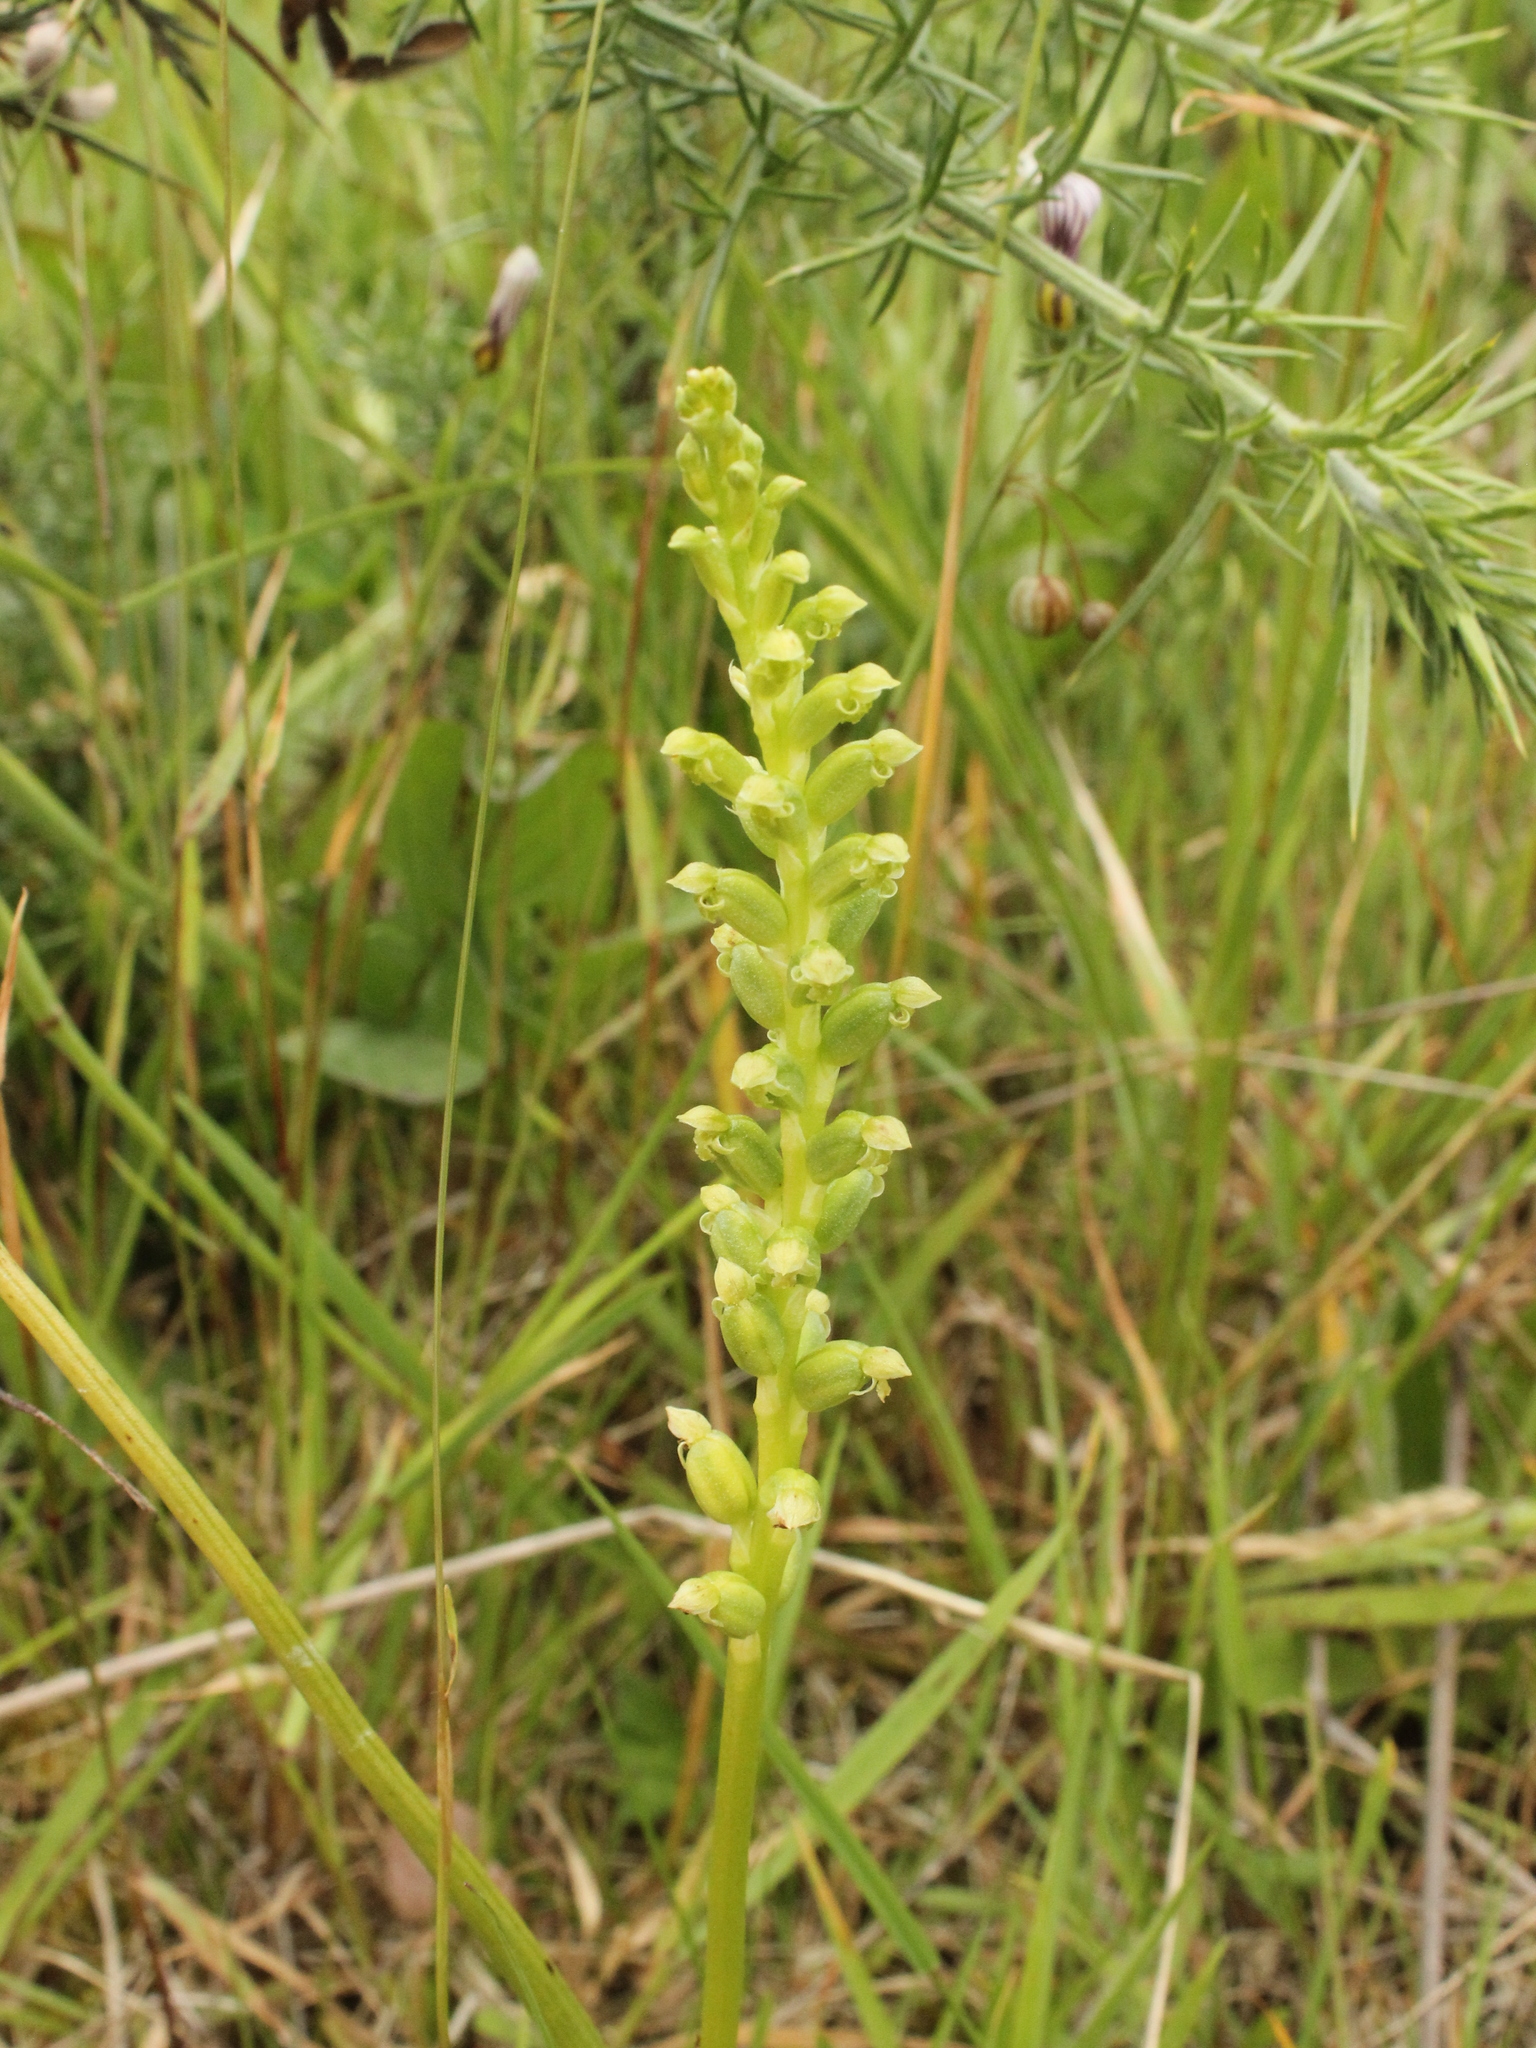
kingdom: Plantae
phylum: Tracheophyta
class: Liliopsida
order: Asparagales
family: Orchidaceae
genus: Microtis
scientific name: Microtis unifolia
